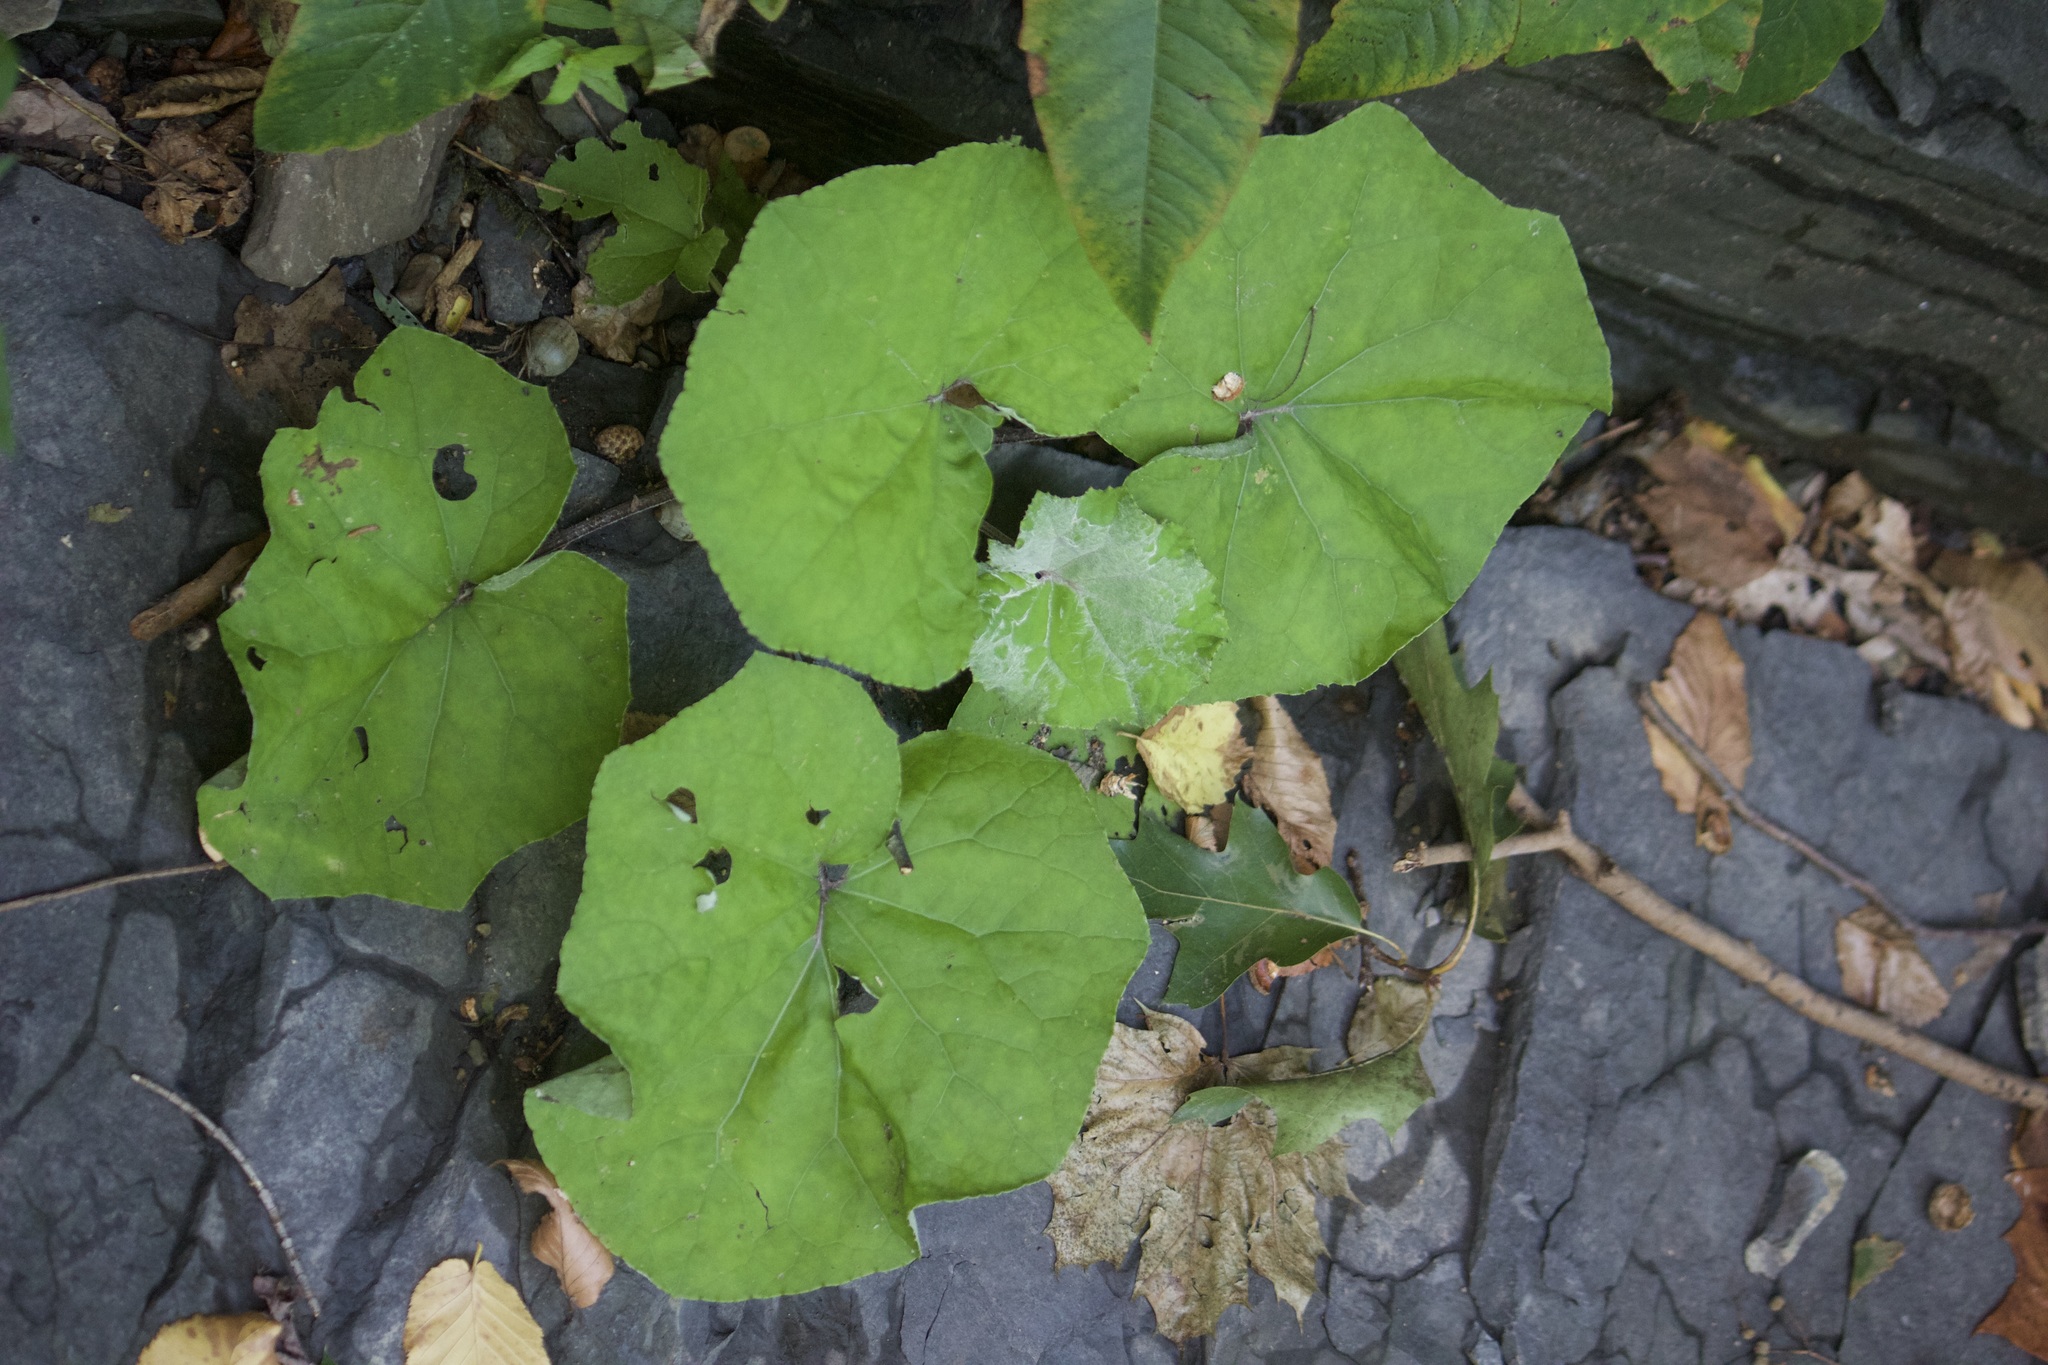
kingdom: Plantae
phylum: Tracheophyta
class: Magnoliopsida
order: Asterales
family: Asteraceae
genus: Tussilago
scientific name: Tussilago farfara
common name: Coltsfoot
